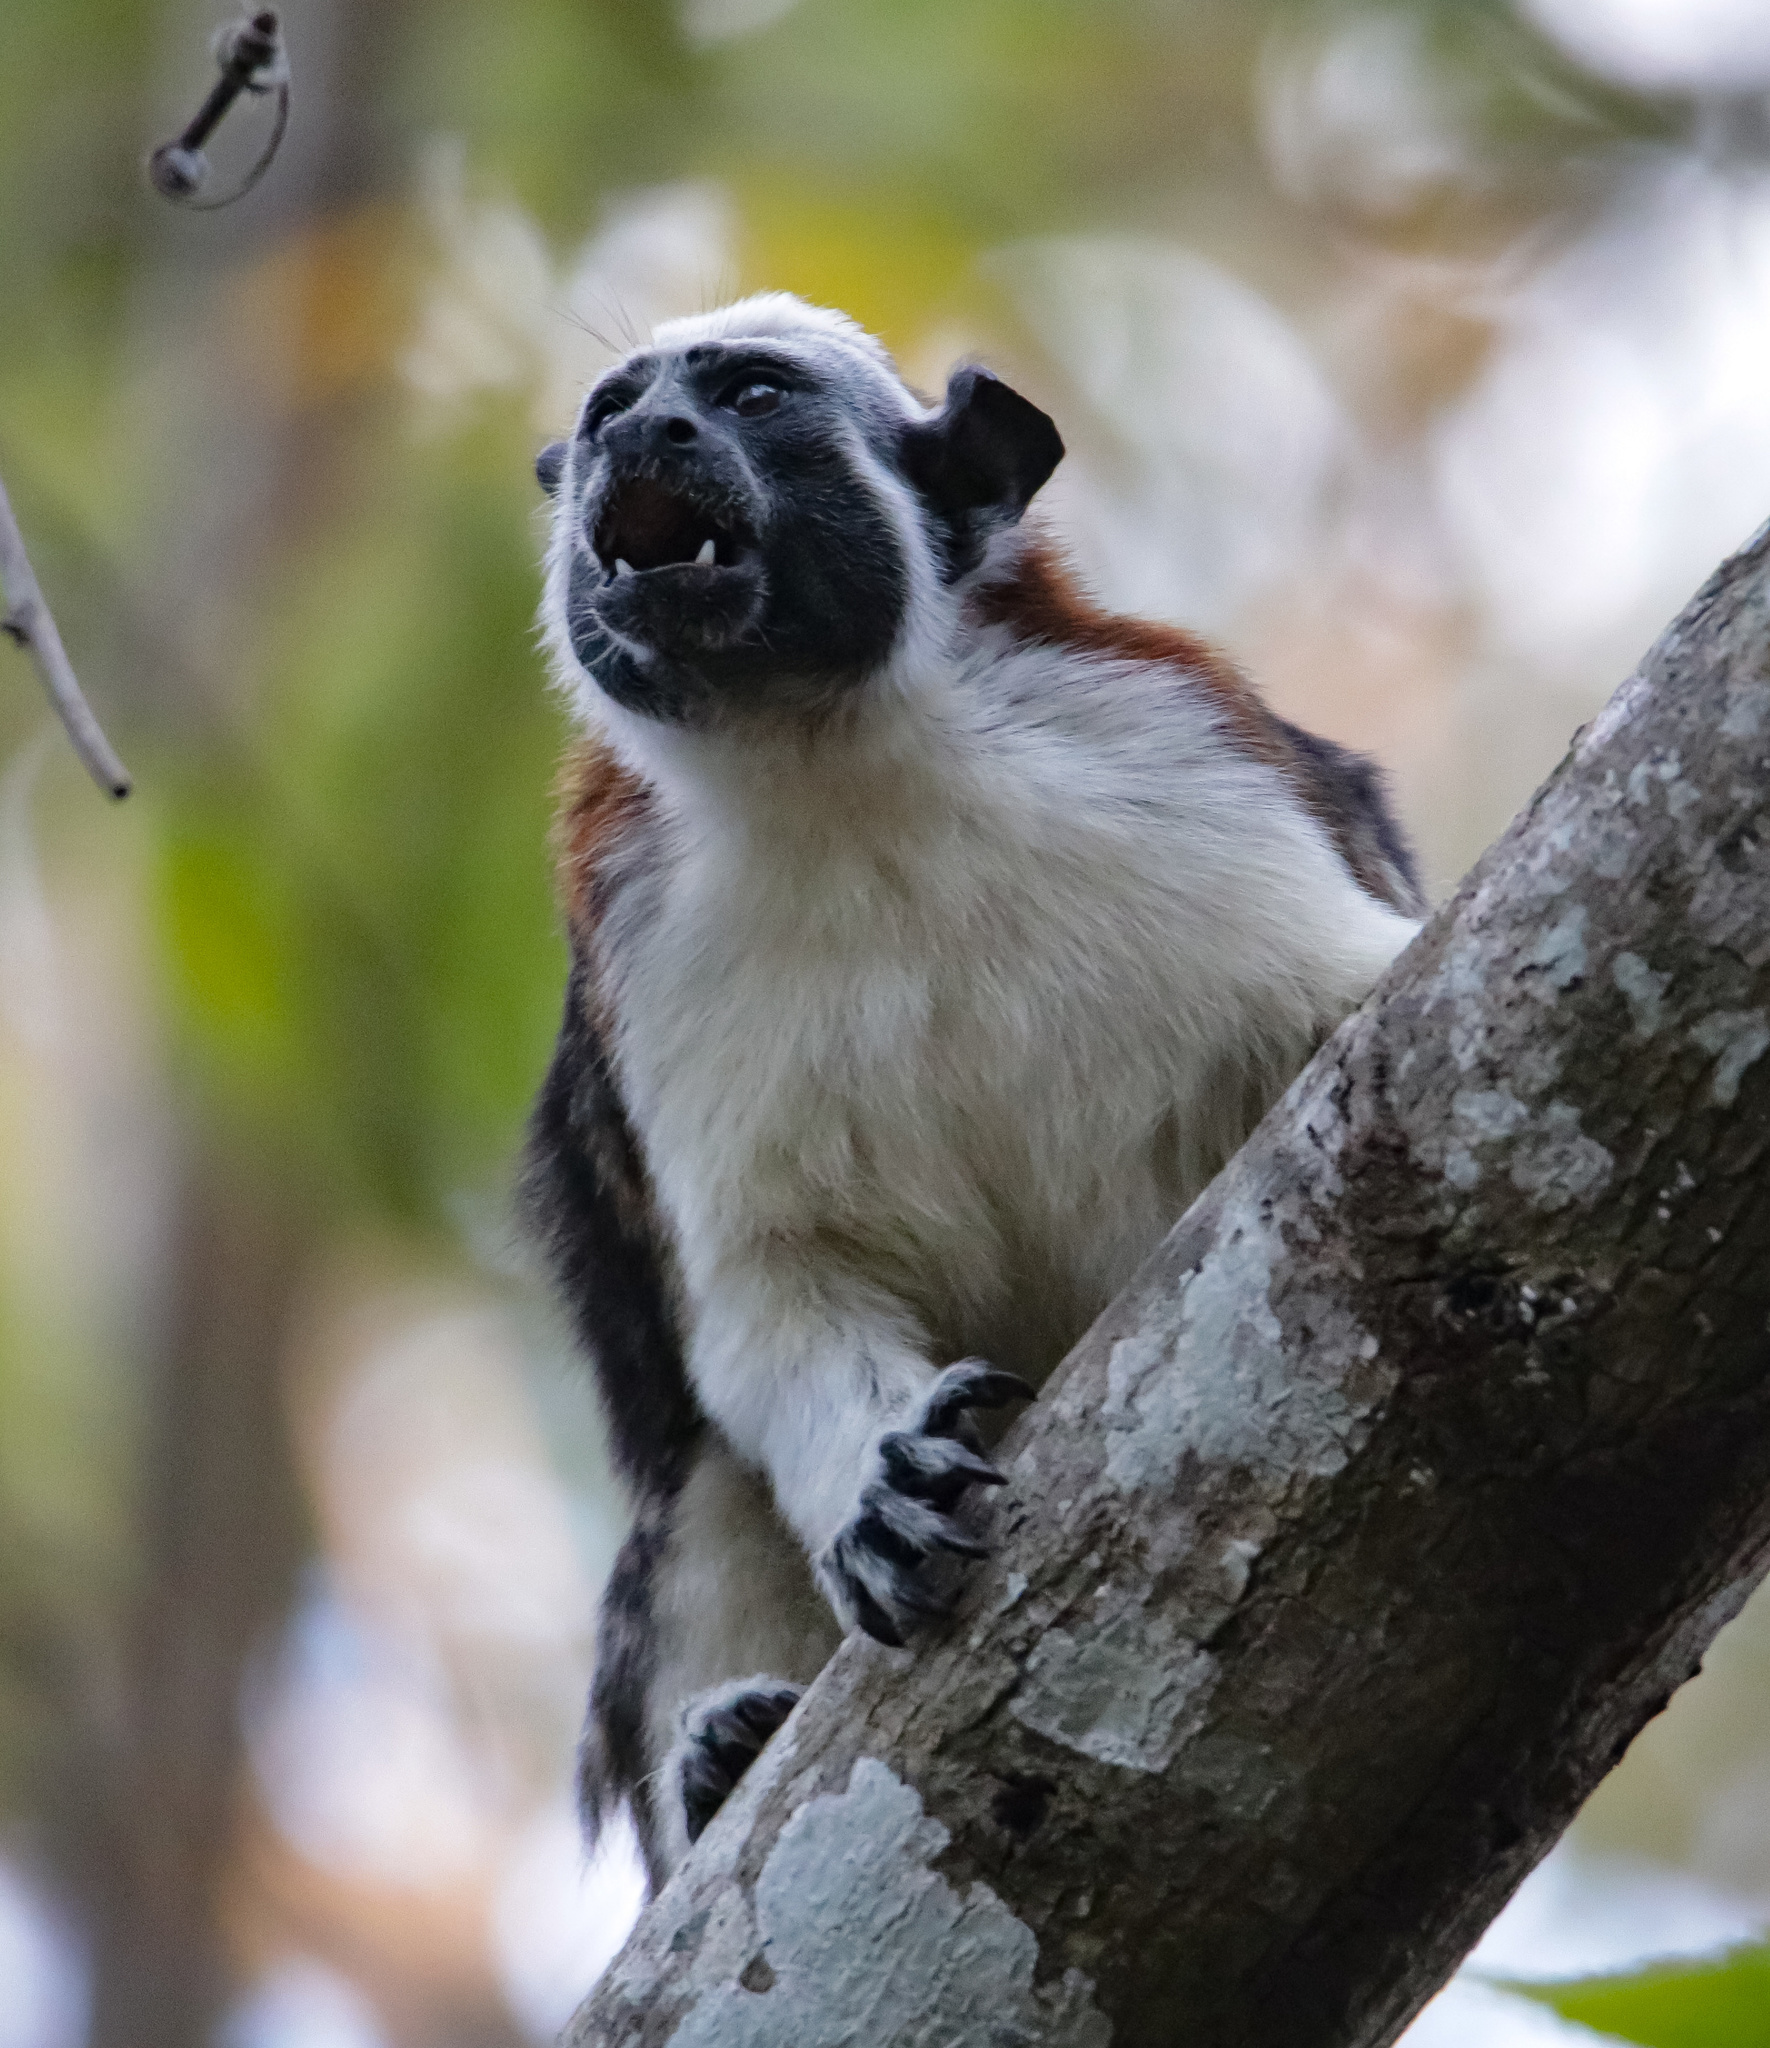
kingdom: Animalia
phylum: Chordata
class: Mammalia
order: Primates
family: Callitrichidae
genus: Saguinus
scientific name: Saguinus geoffroyi
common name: Geoffroy s tamarin
